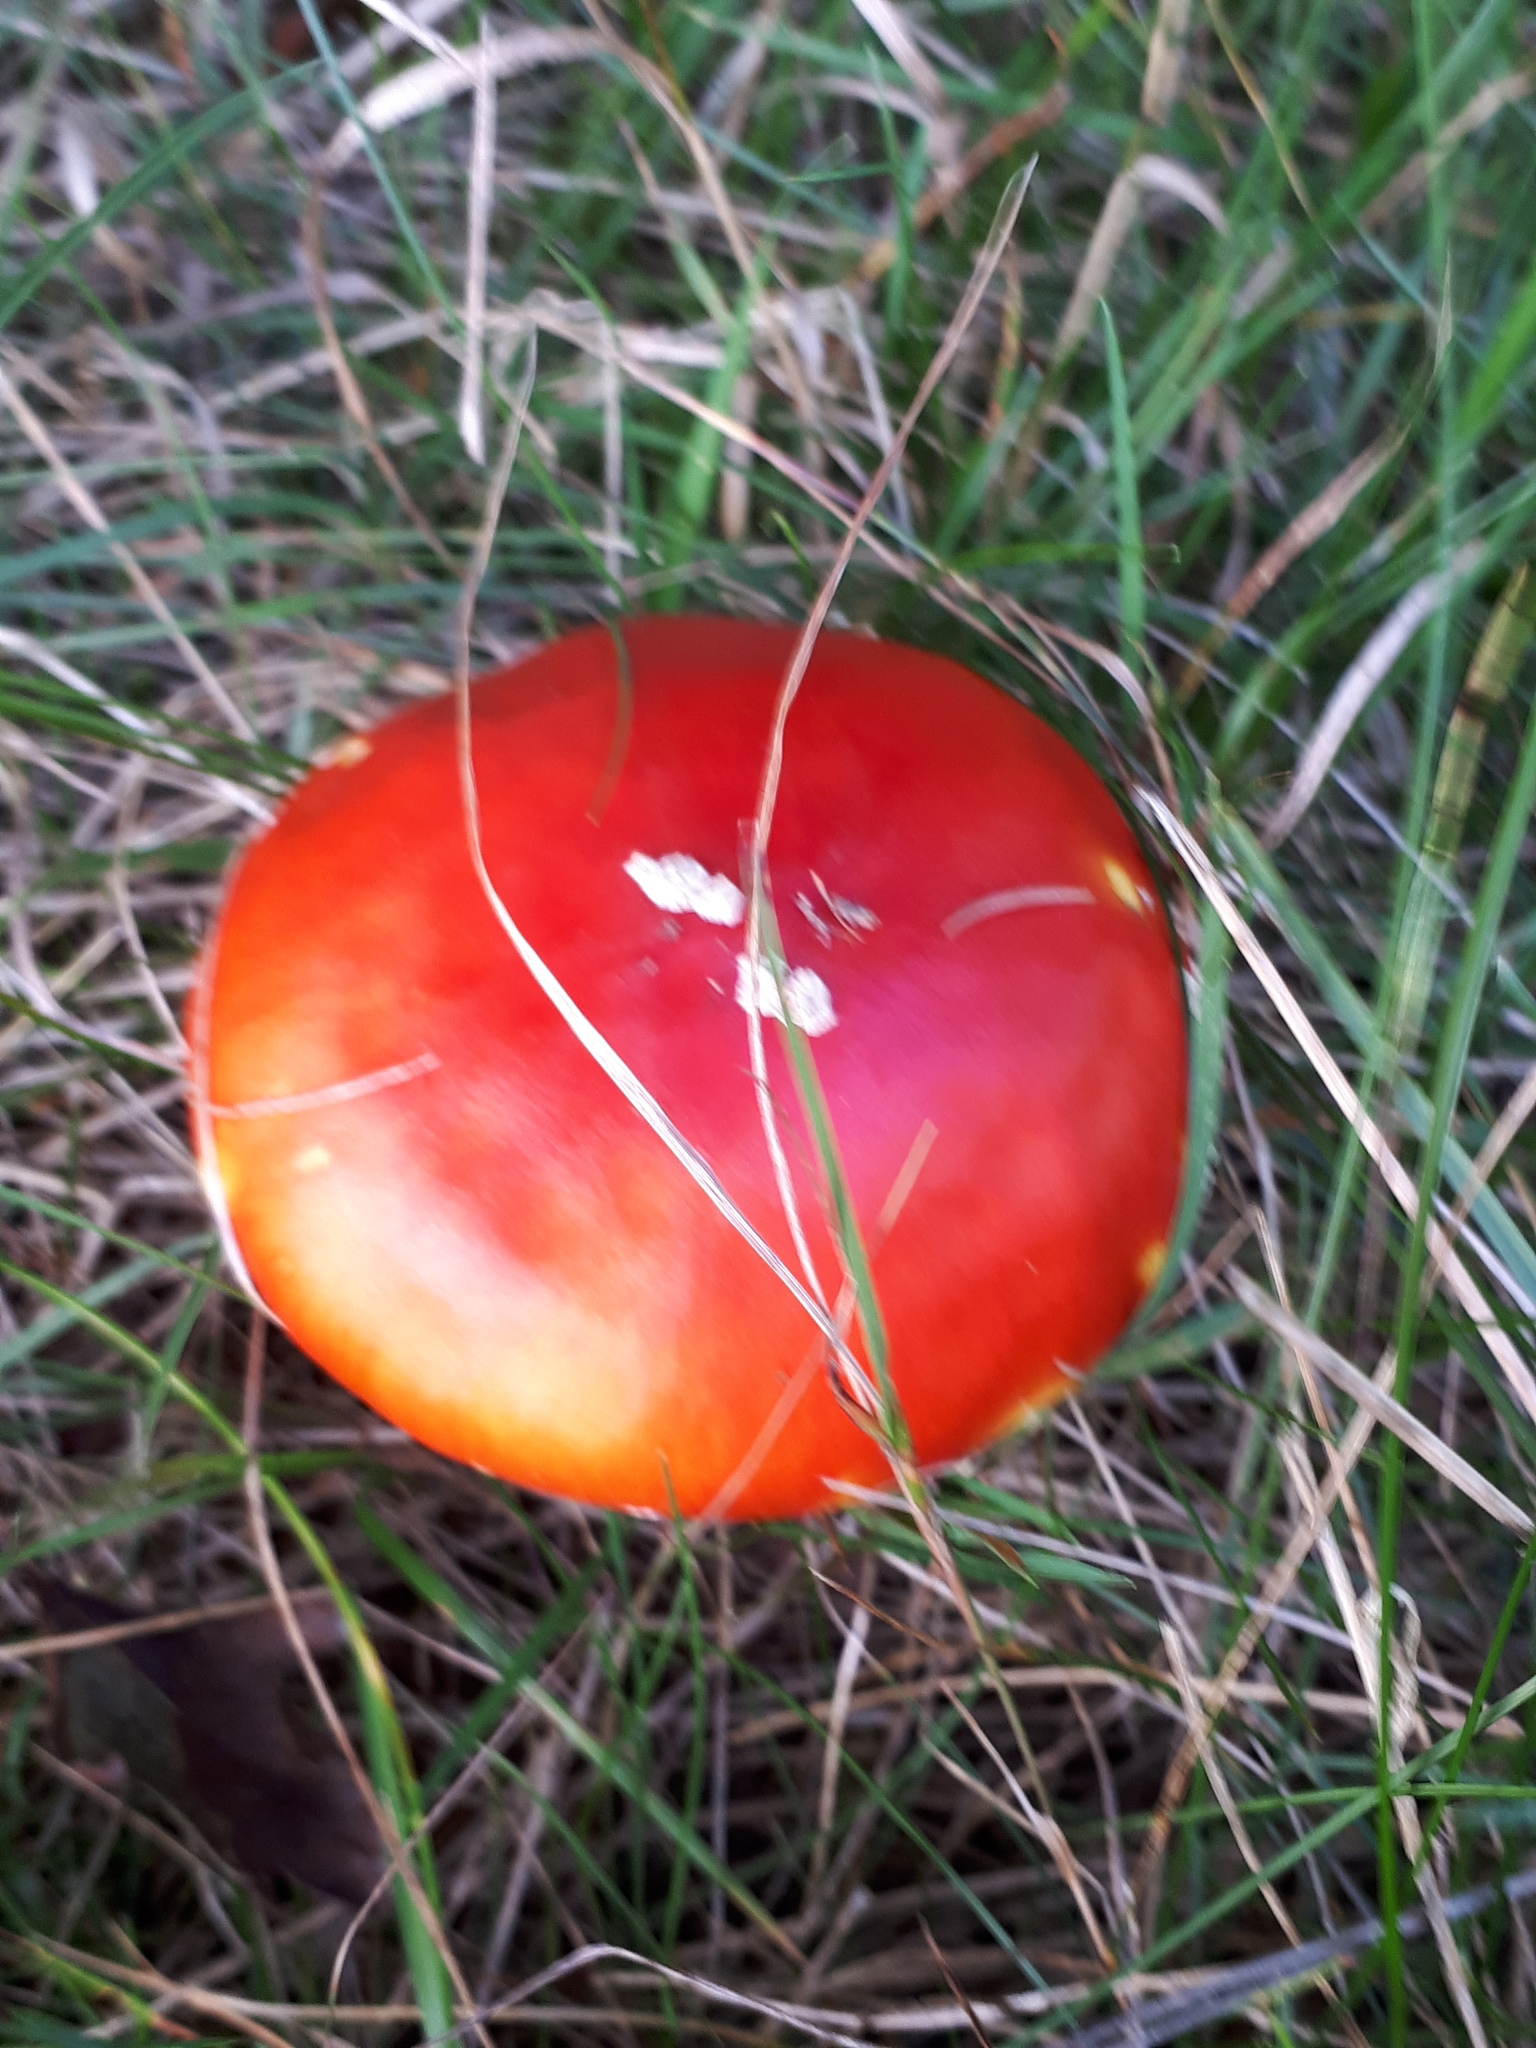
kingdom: Fungi
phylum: Basidiomycota
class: Agaricomycetes
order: Agaricales
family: Amanitaceae
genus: Amanita
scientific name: Amanita muscaria
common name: Fly agaric
